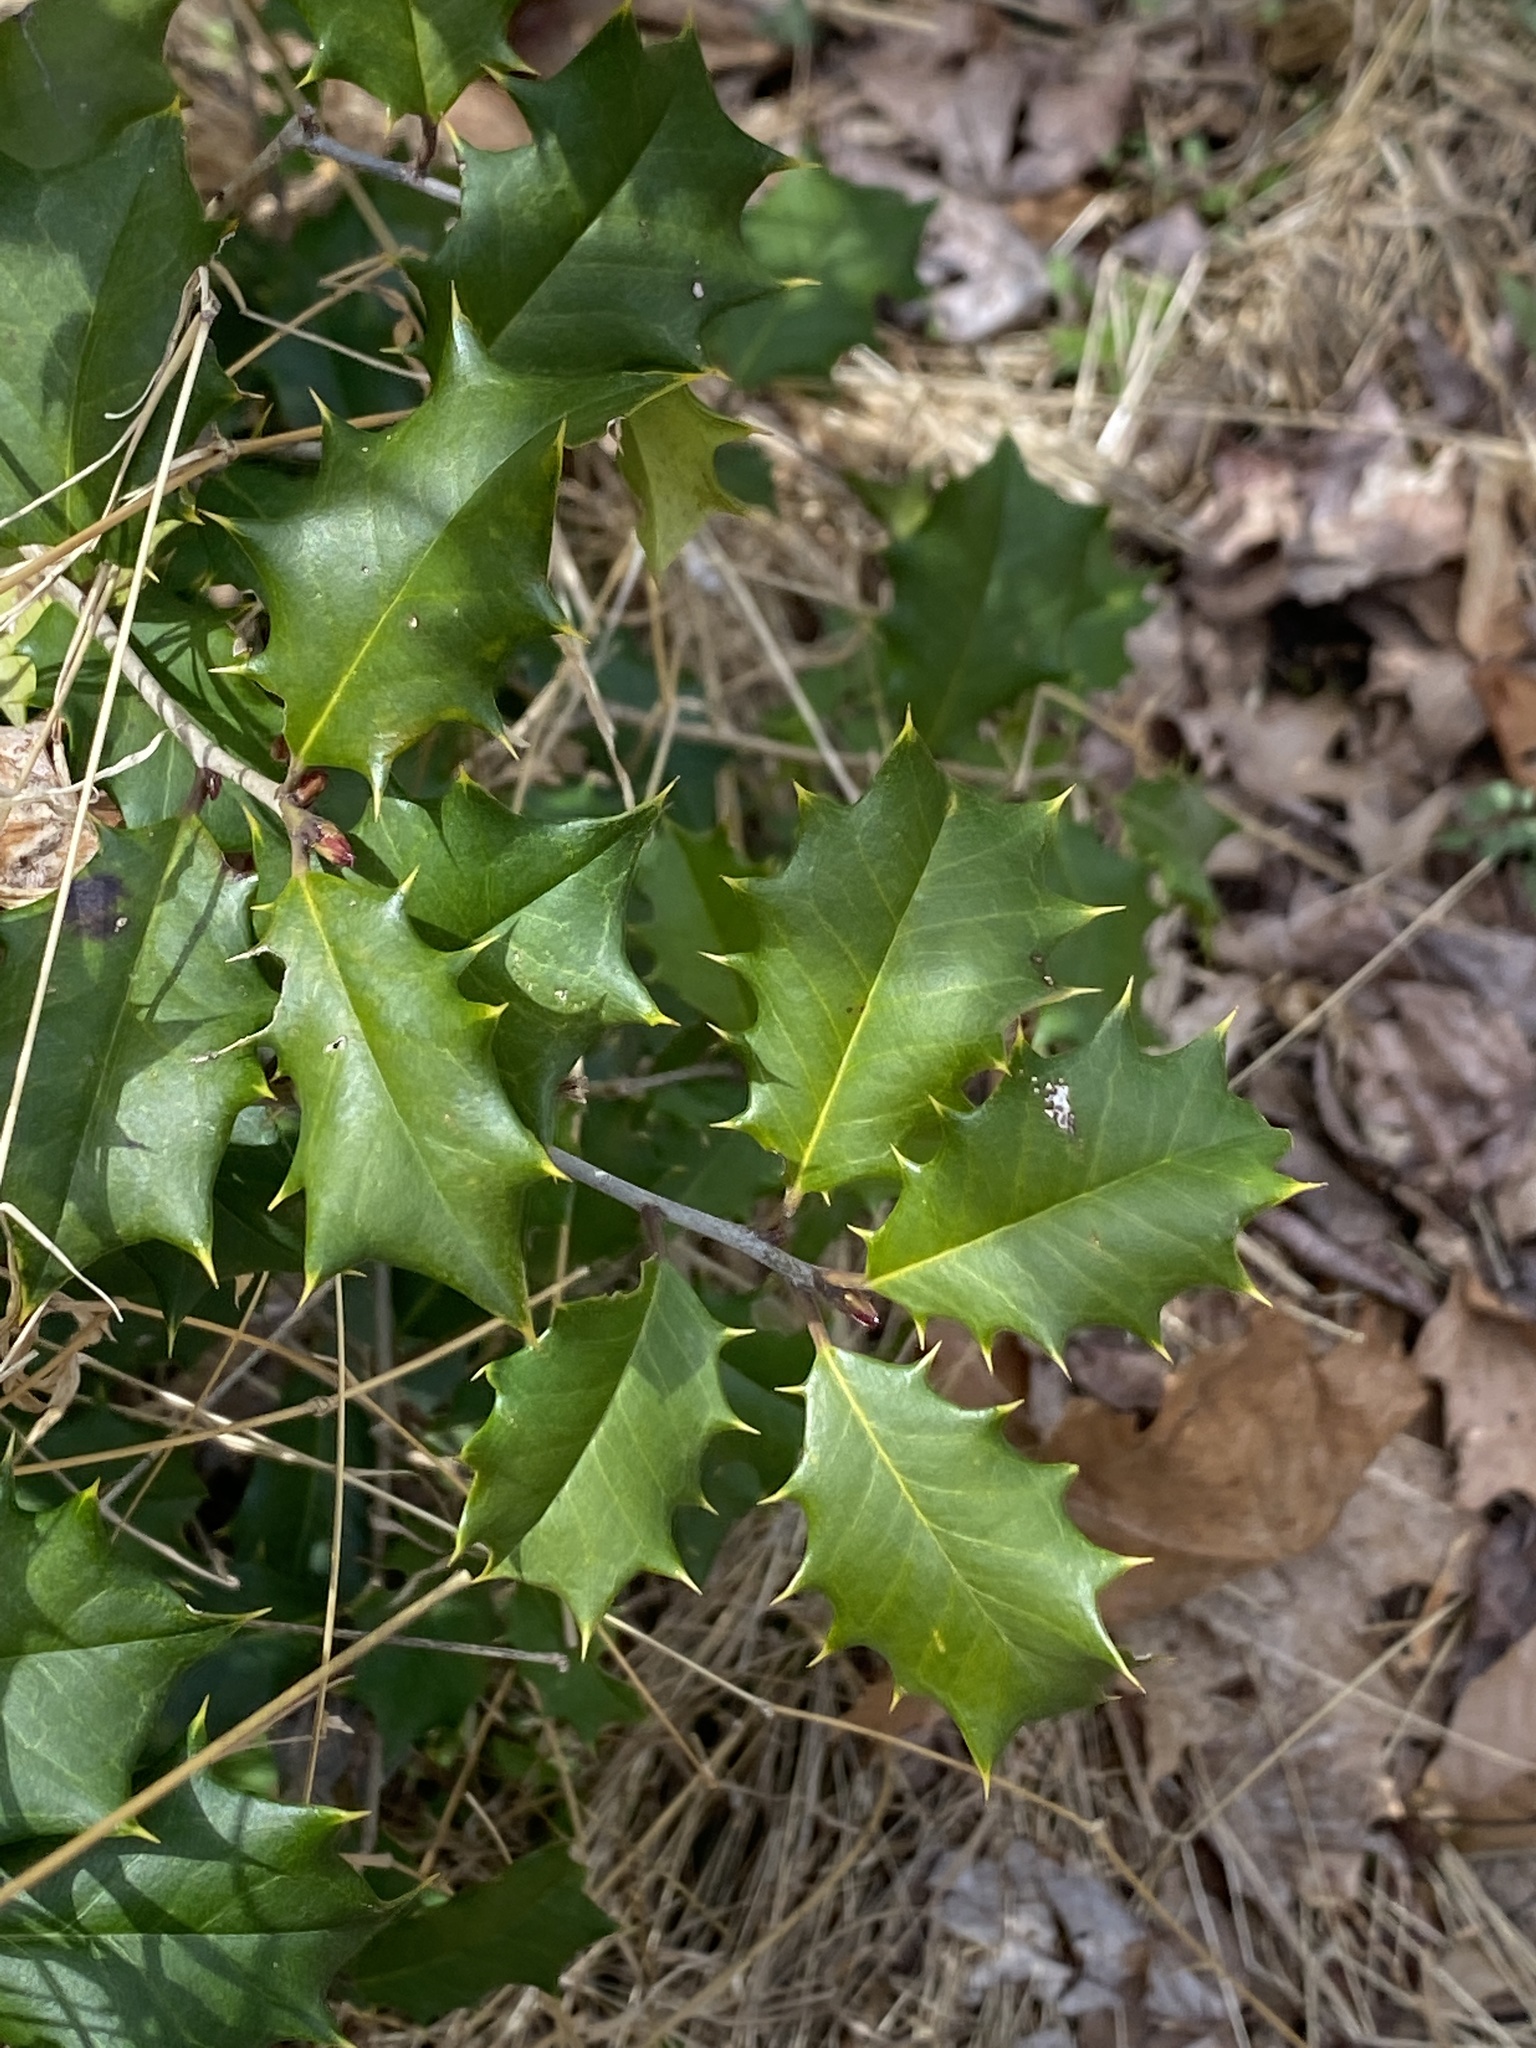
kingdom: Plantae
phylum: Tracheophyta
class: Magnoliopsida
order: Aquifoliales
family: Aquifoliaceae
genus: Ilex
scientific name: Ilex opaca
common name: American holly
